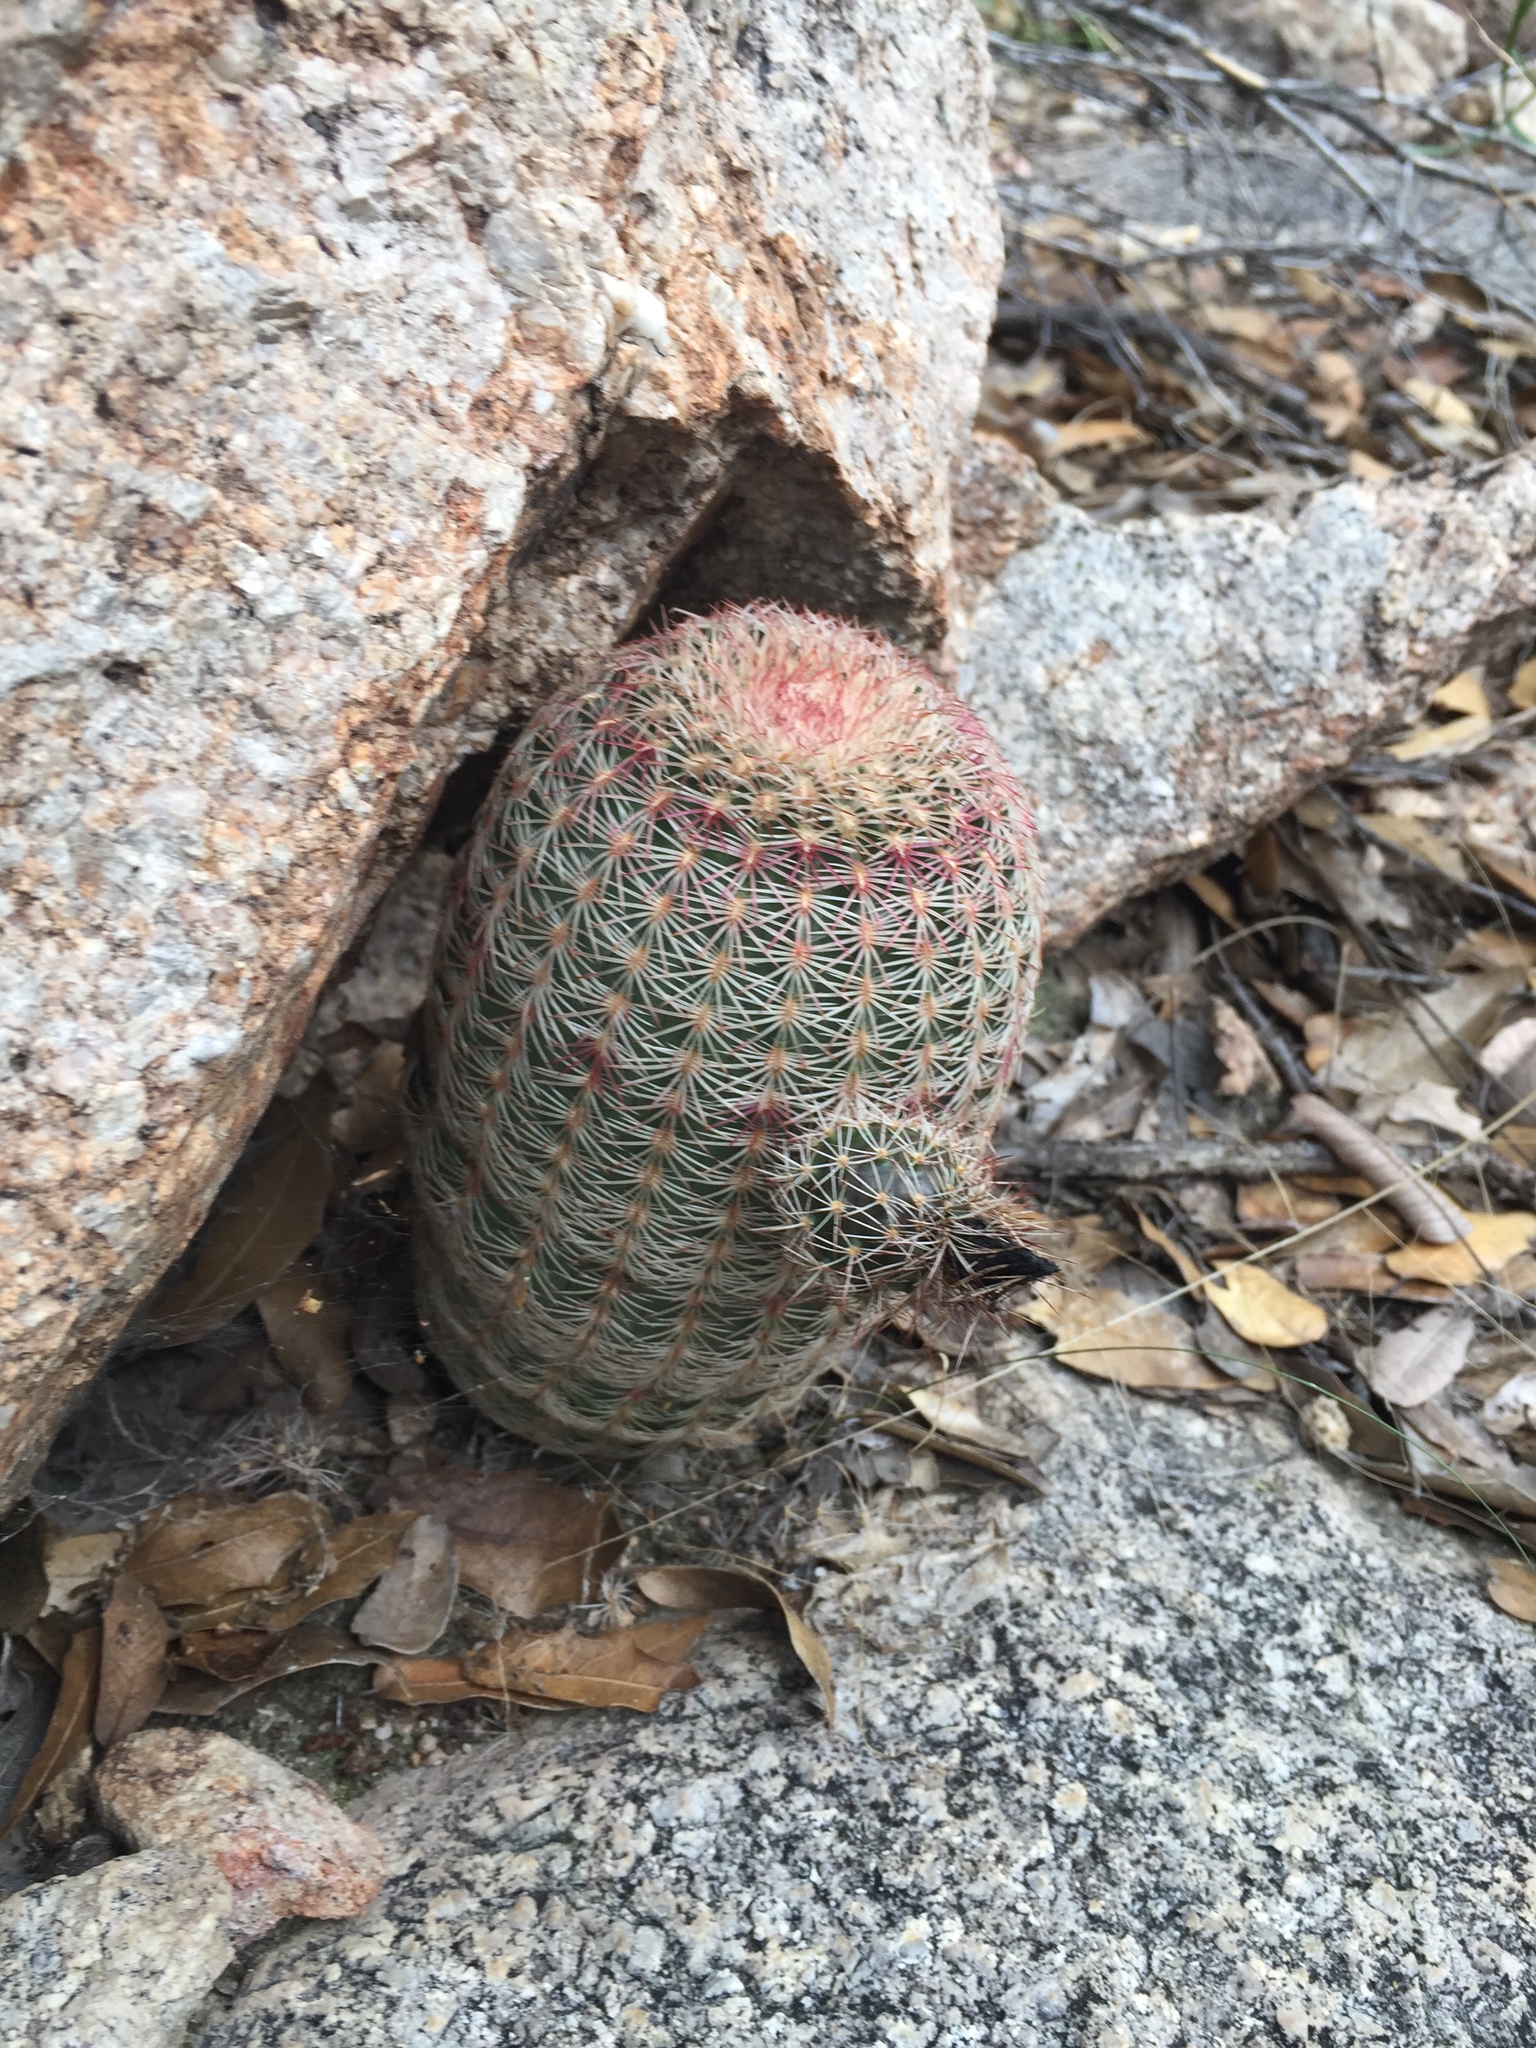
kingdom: Plantae
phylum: Tracheophyta
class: Magnoliopsida
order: Caryophyllales
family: Cactaceae
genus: Echinocereus
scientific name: Echinocereus rigidissimus
